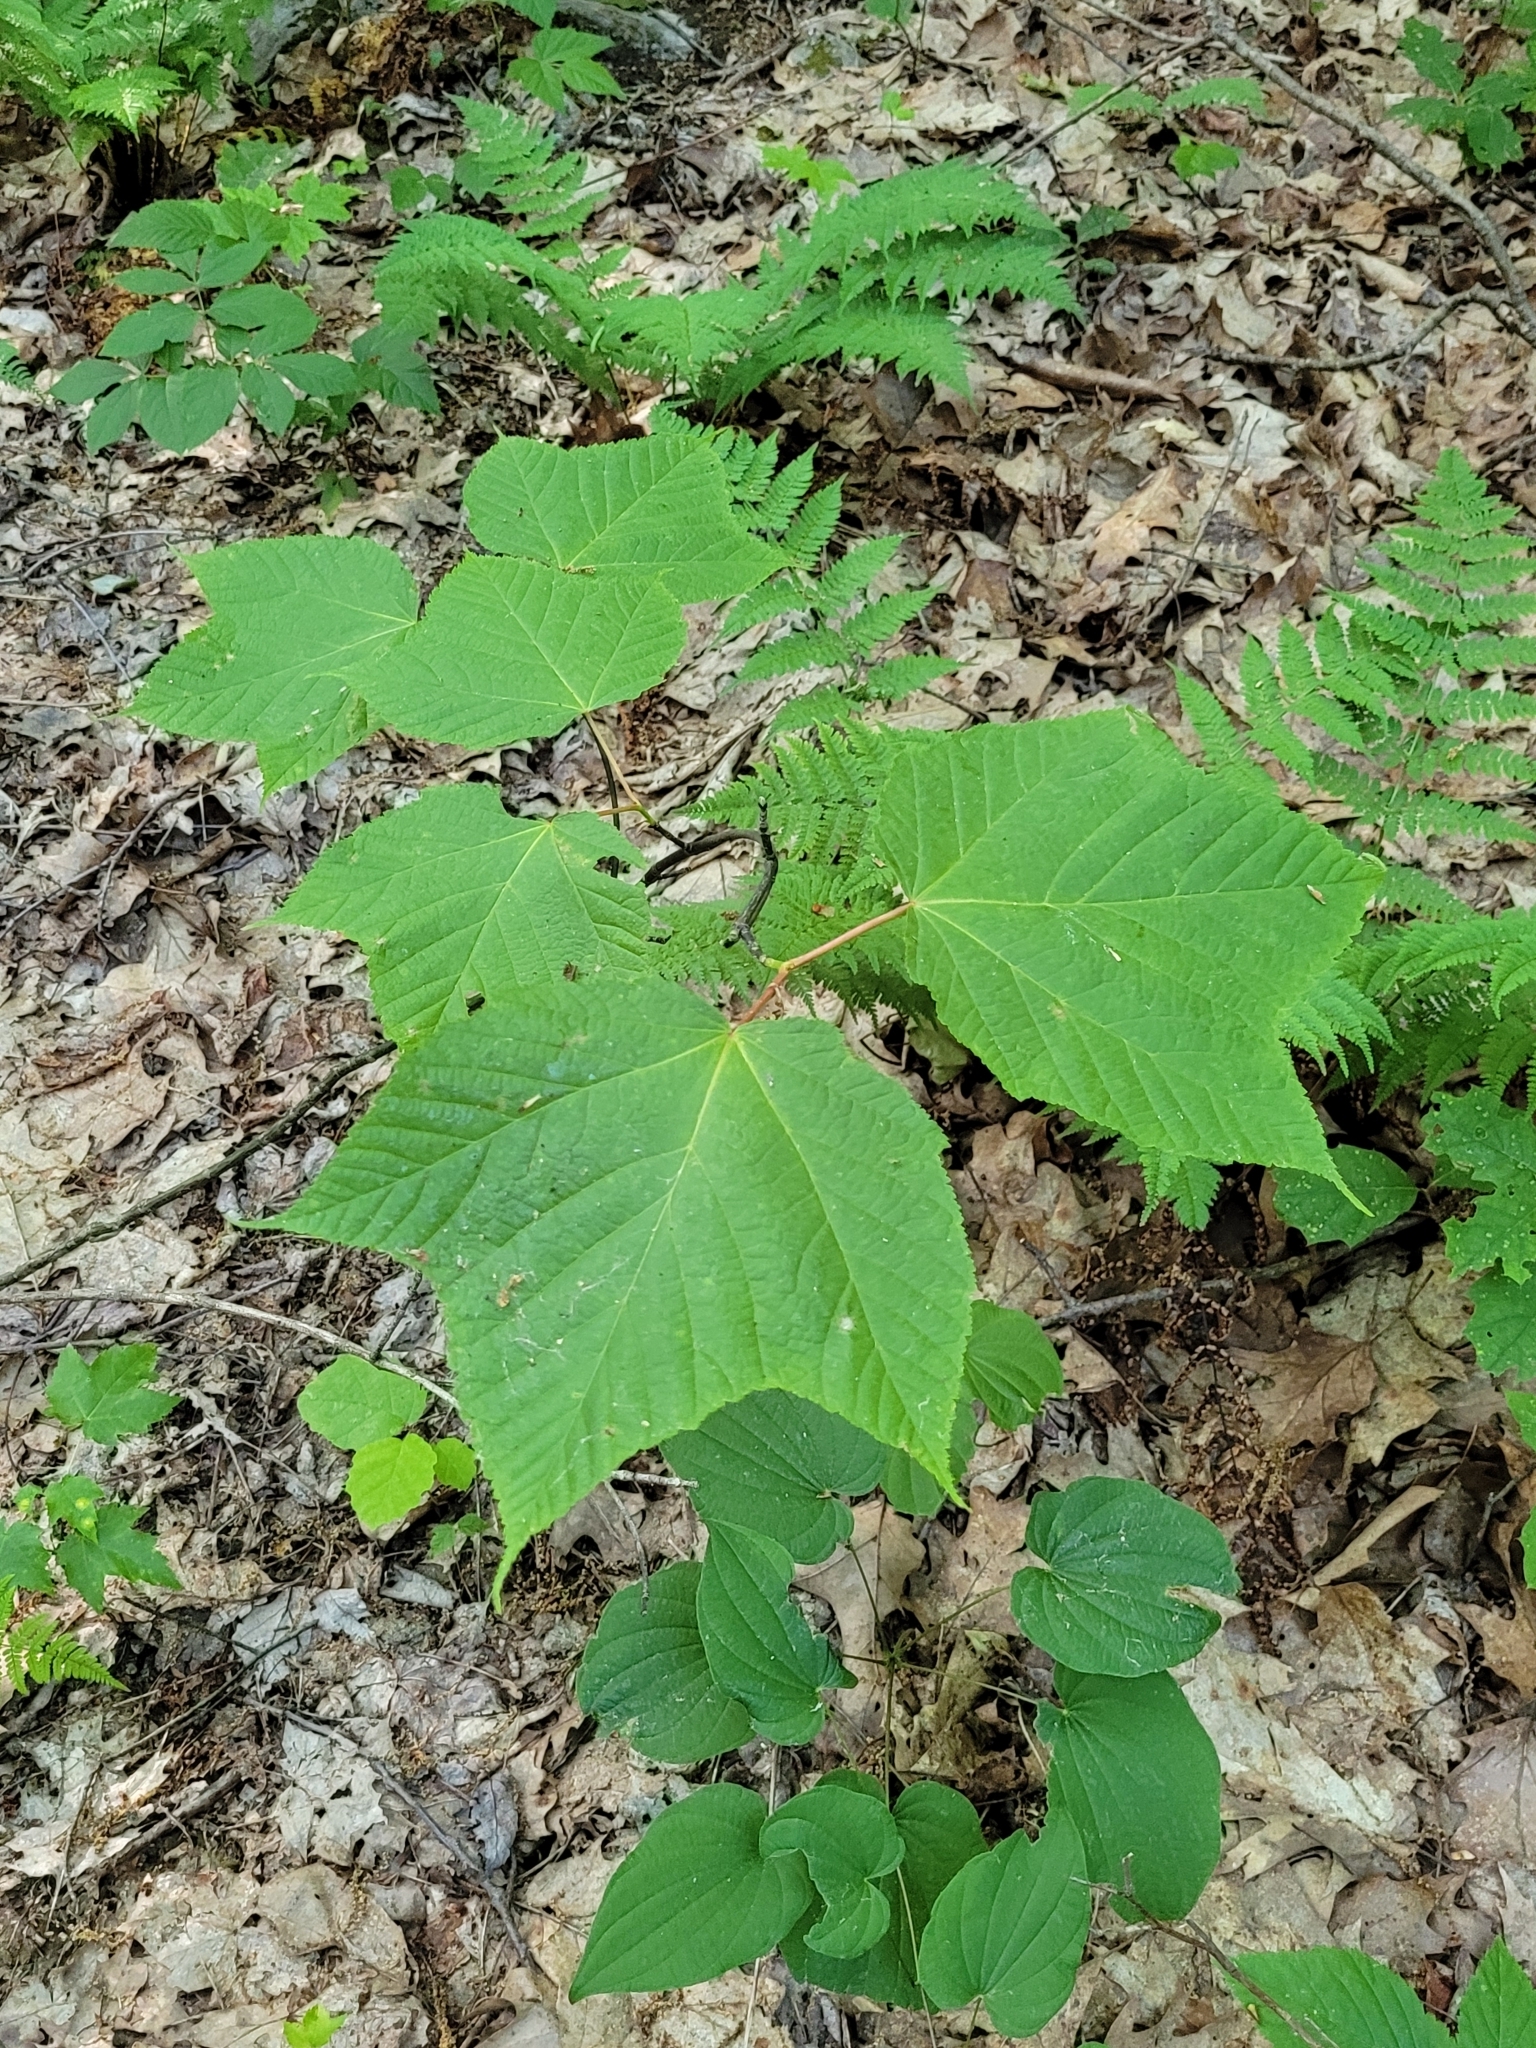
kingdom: Plantae
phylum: Tracheophyta
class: Magnoliopsida
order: Sapindales
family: Sapindaceae
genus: Acer
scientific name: Acer pensylvanicum
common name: Moosewood
